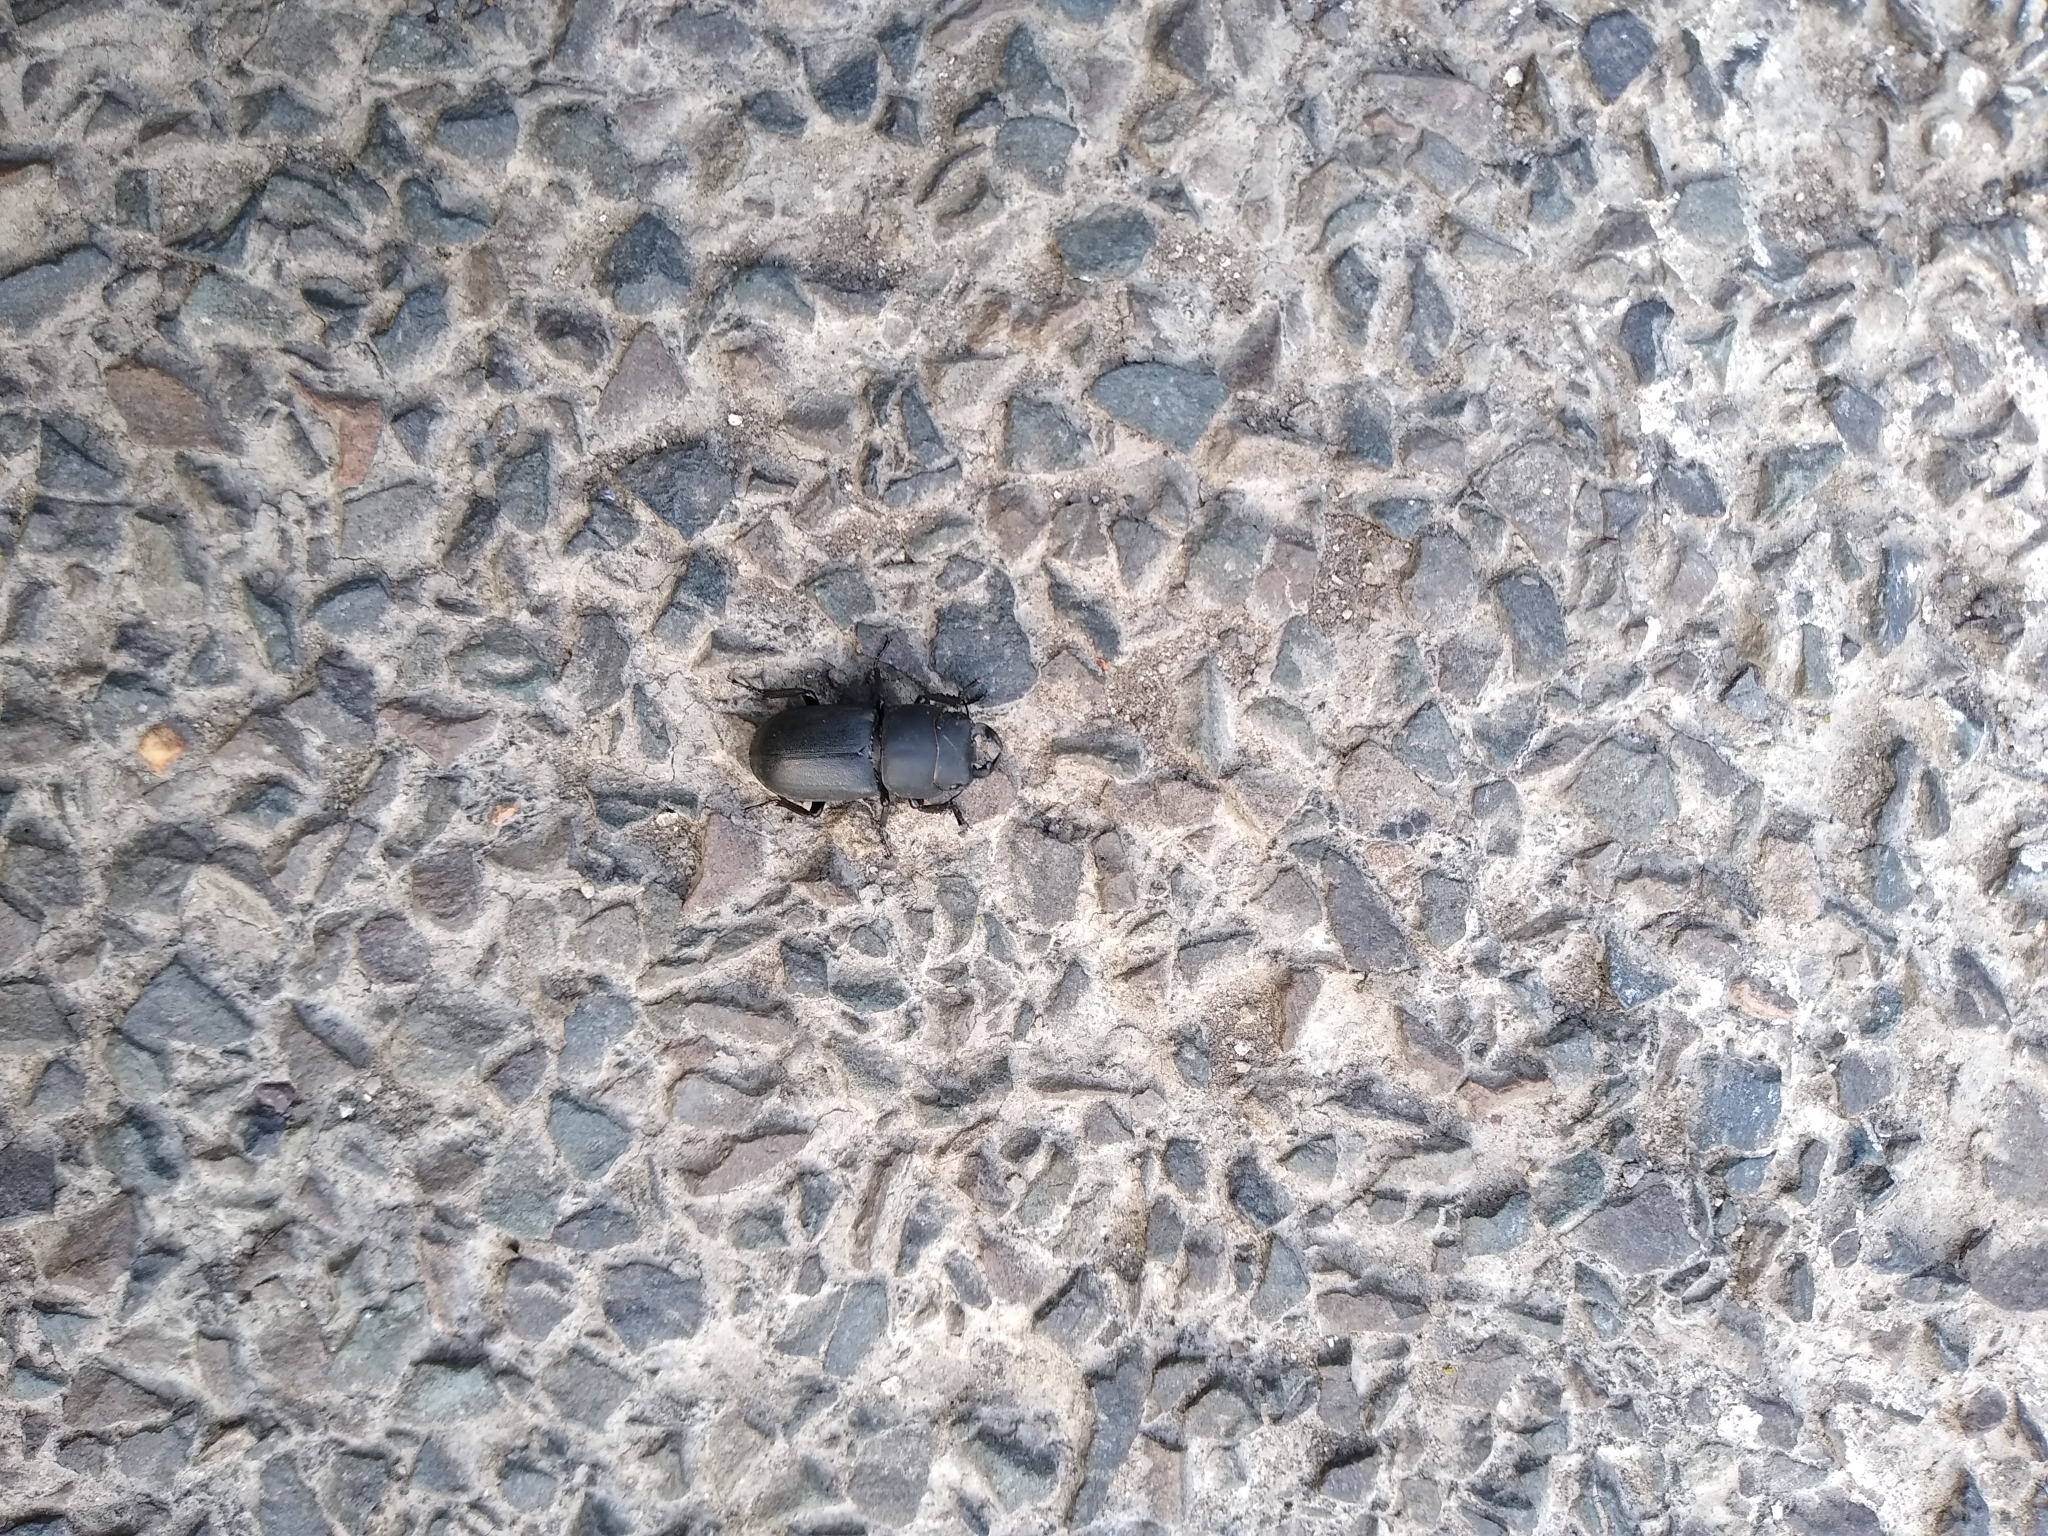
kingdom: Animalia
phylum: Arthropoda
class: Insecta
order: Coleoptera
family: Lucanidae
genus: Dorcus
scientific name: Dorcus parallelipipedus
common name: Lesser stag beetle
